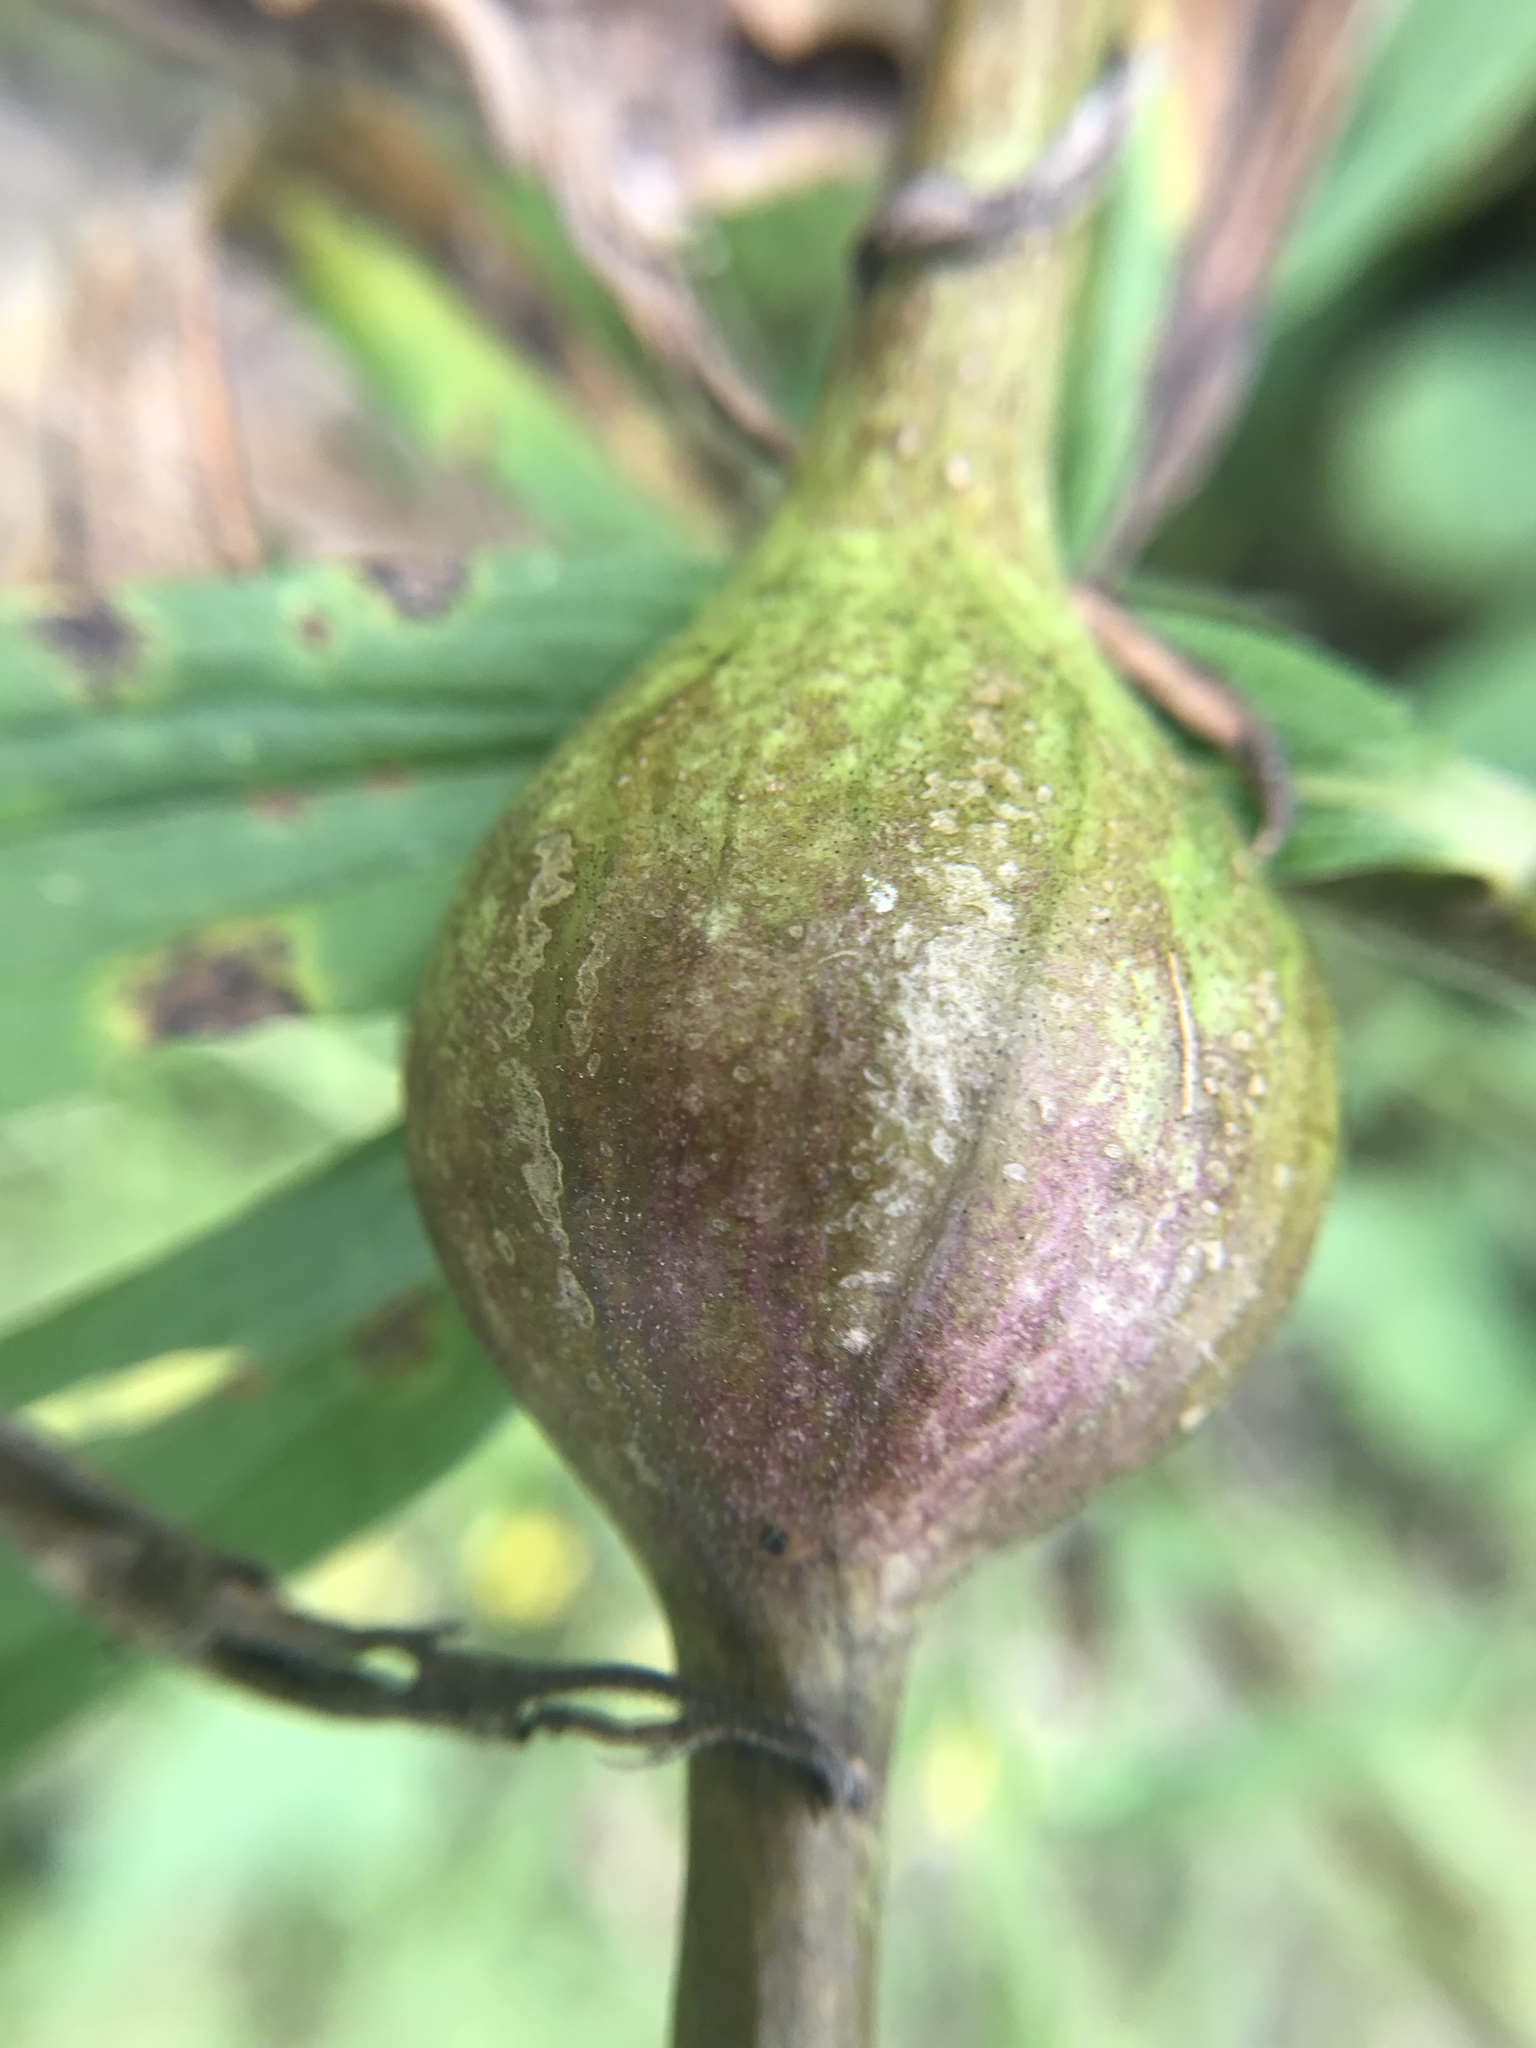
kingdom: Animalia
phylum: Arthropoda
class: Insecta
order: Diptera
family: Tephritidae
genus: Eurosta
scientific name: Eurosta solidaginis
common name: Goldenrod gall fly
